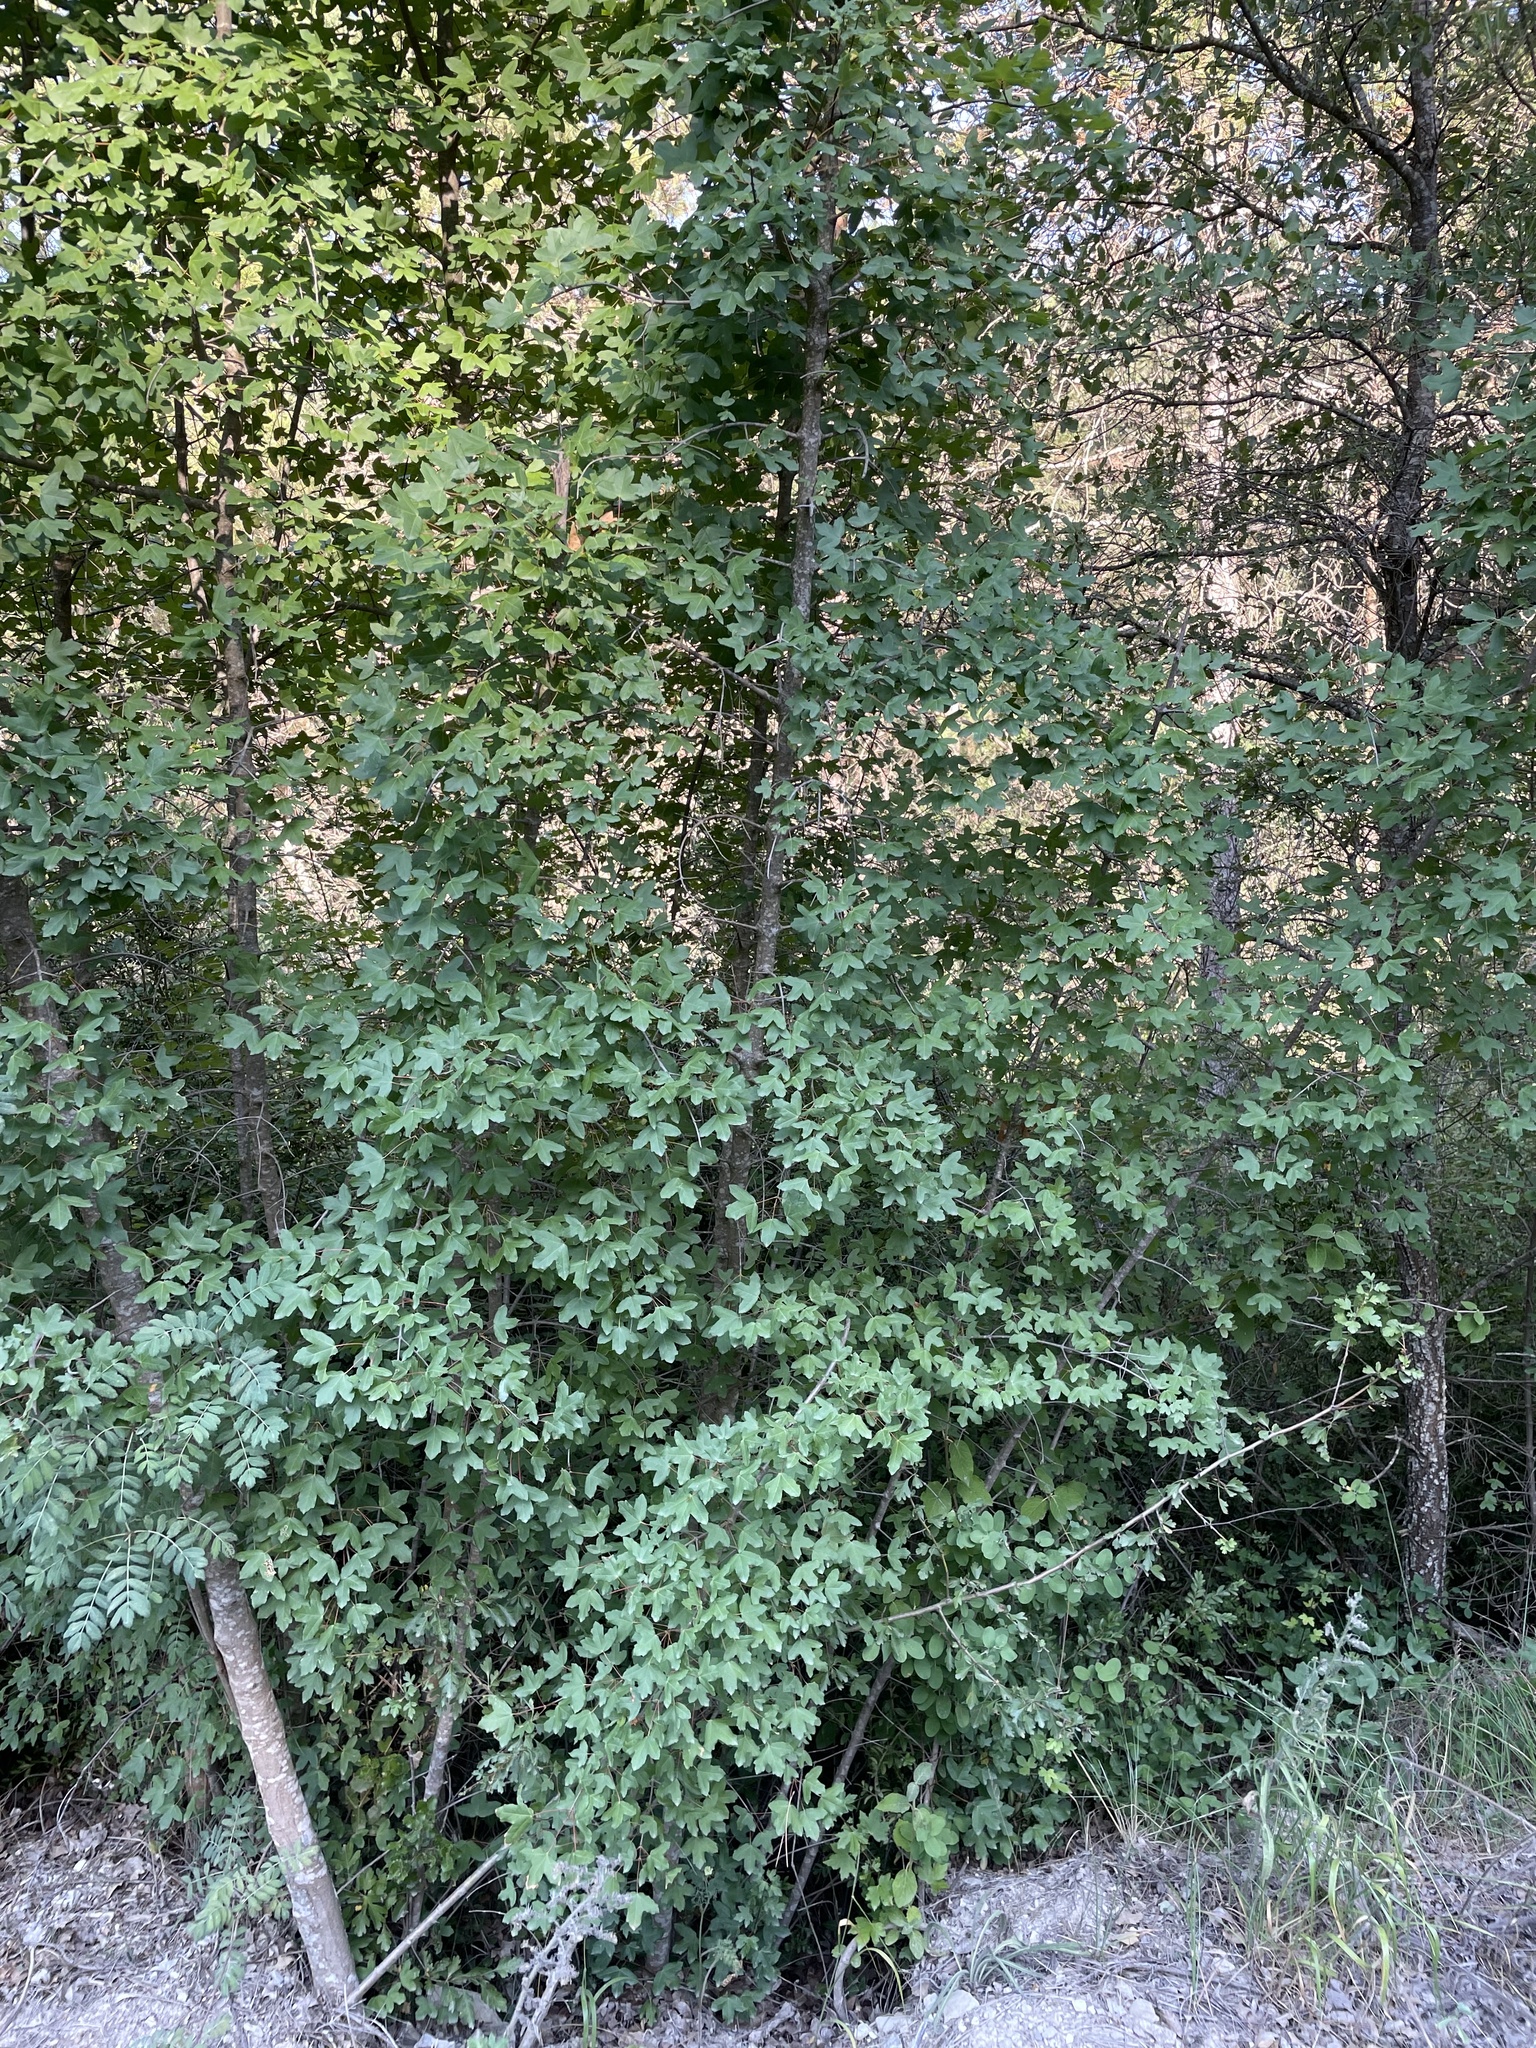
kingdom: Plantae
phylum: Tracheophyta
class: Magnoliopsida
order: Sapindales
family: Sapindaceae
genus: Acer
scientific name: Acer monspessulanum
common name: Montpellier maple
